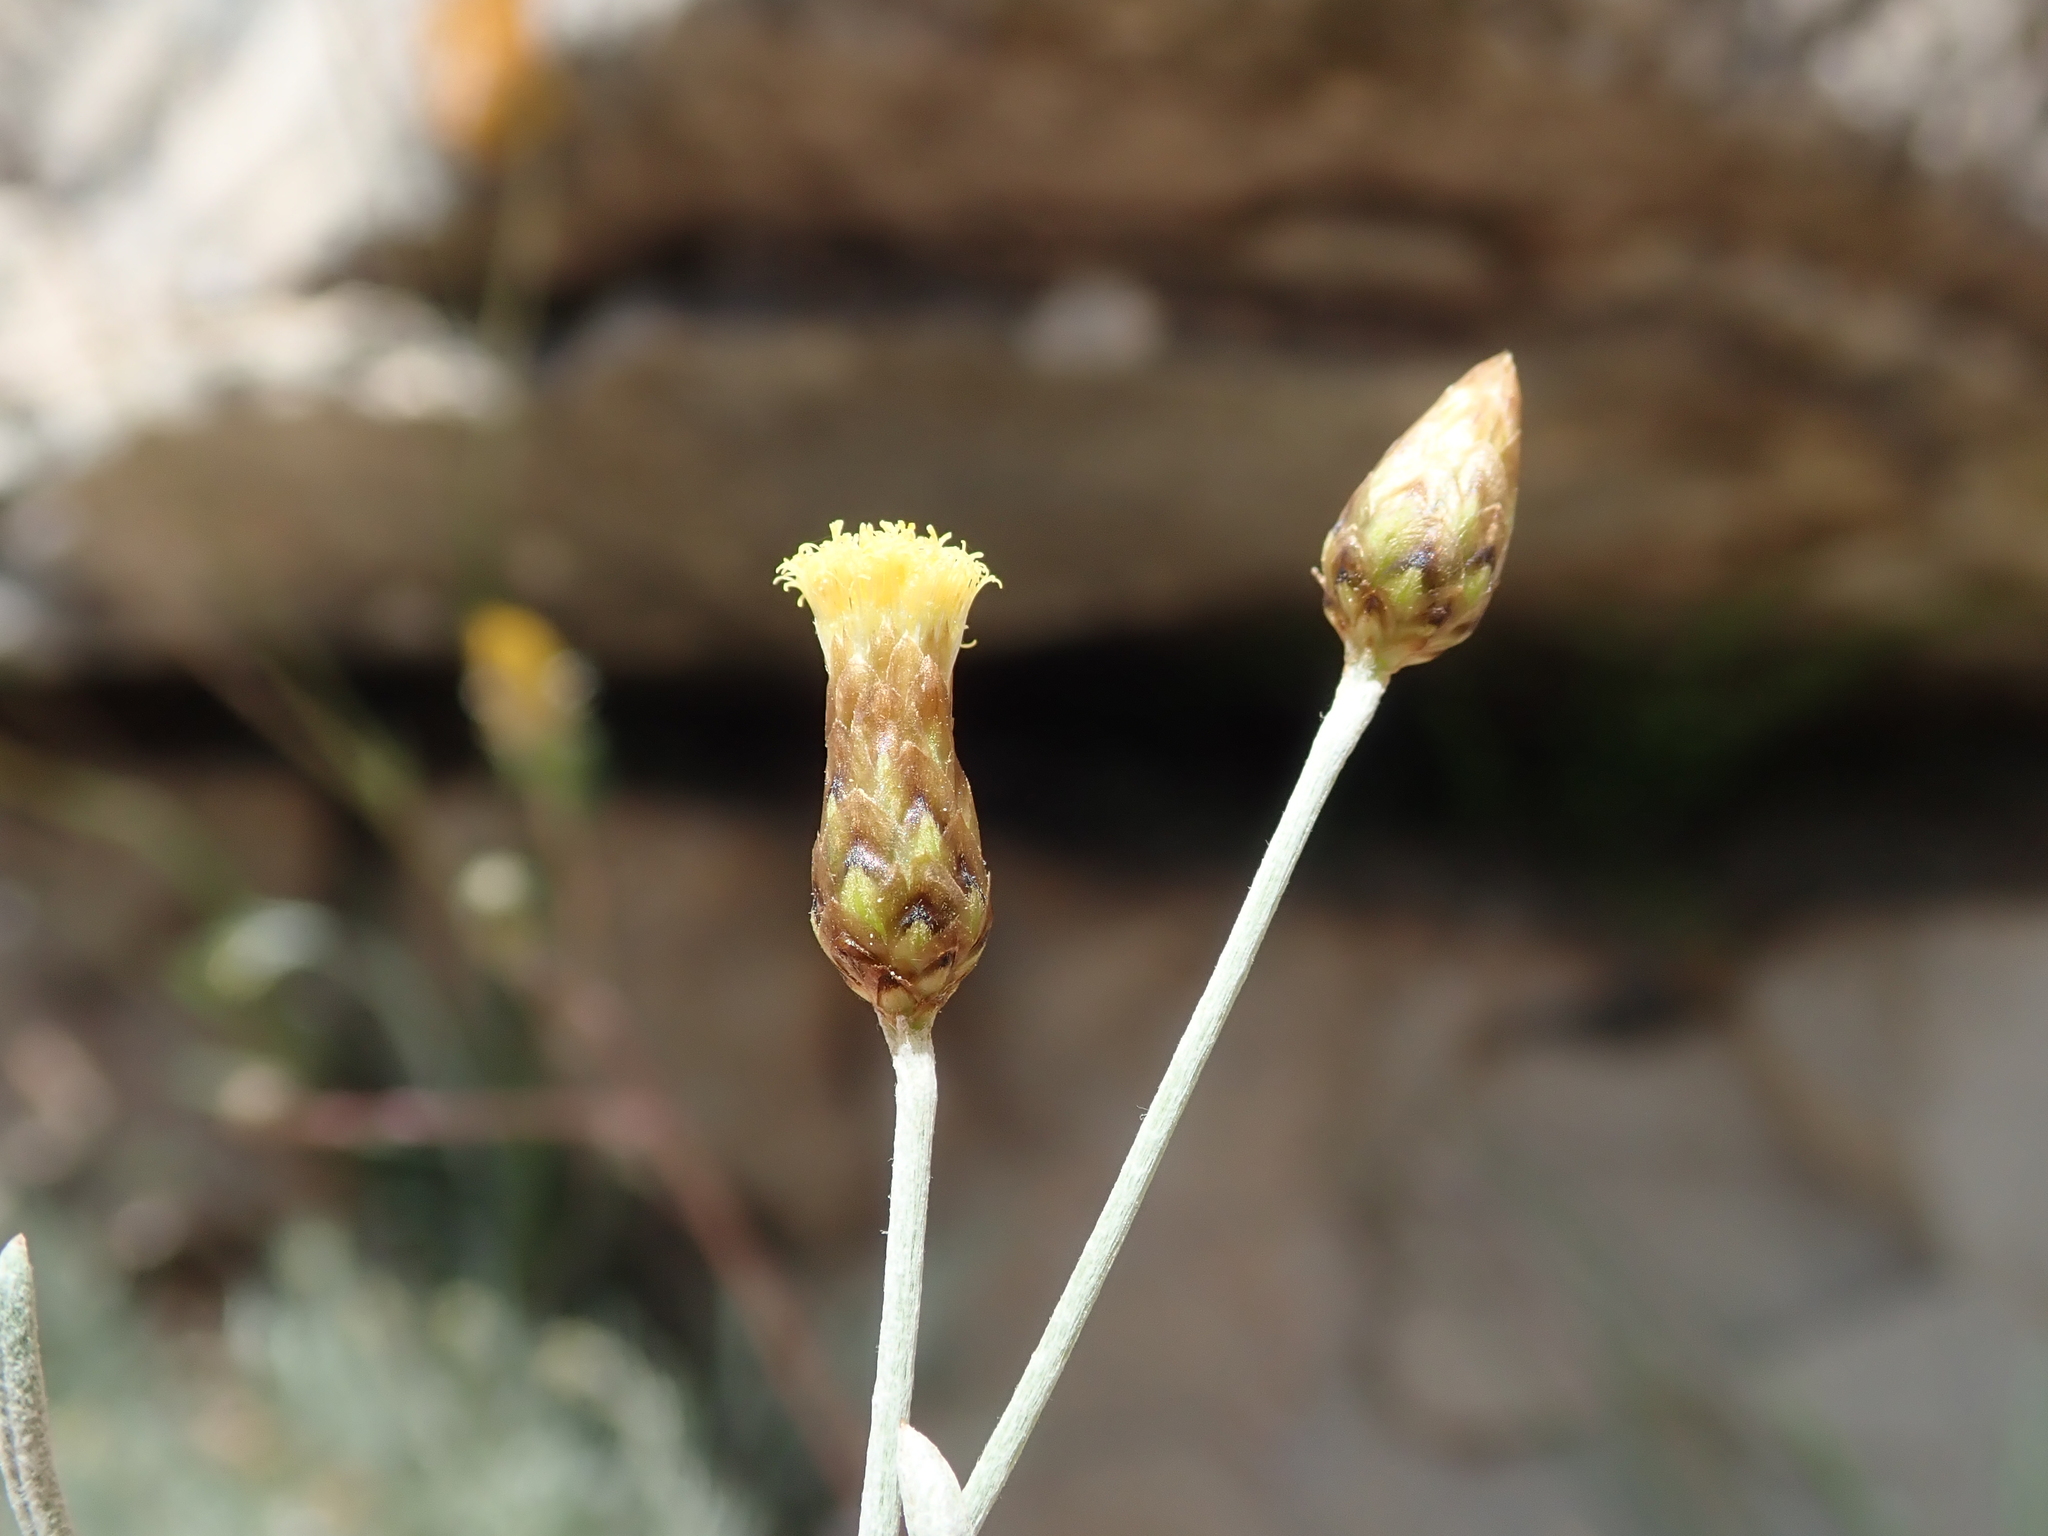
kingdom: Plantae
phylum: Tracheophyta
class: Magnoliopsida
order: Asterales
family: Asteraceae
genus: Phagnalon
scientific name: Phagnalon sordidum
